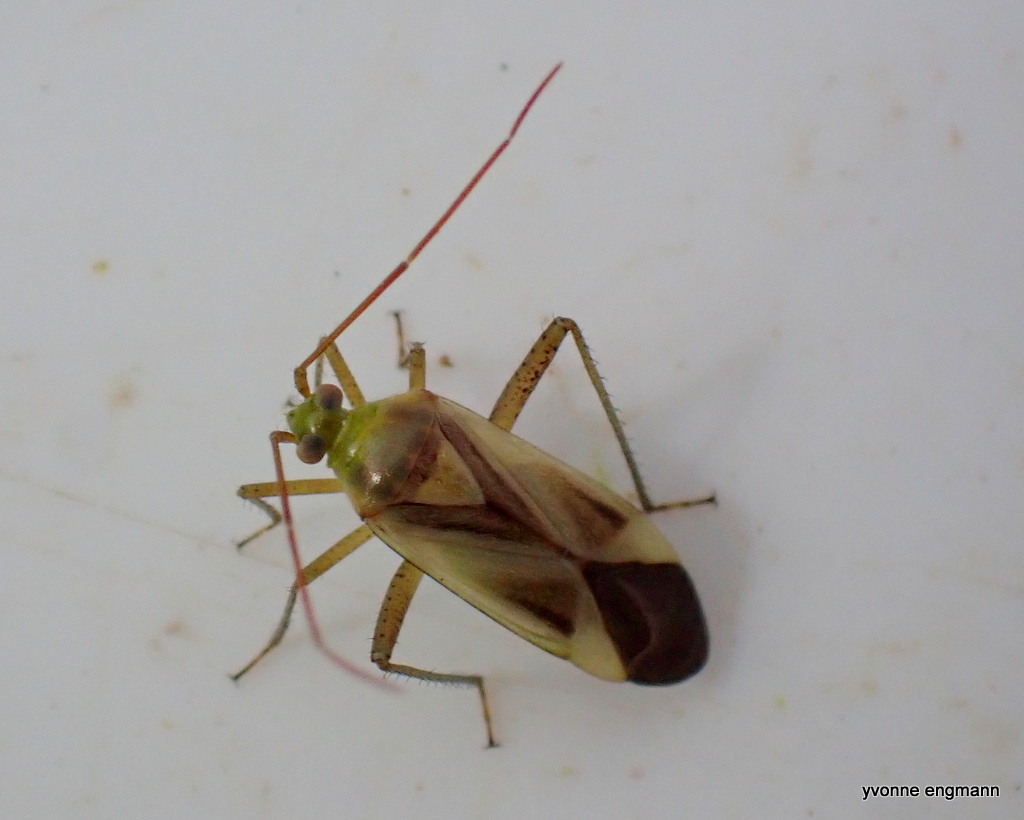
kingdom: Animalia
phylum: Arthropoda
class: Insecta
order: Hemiptera
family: Miridae
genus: Adelphocoris
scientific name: Adelphocoris lineolatus
